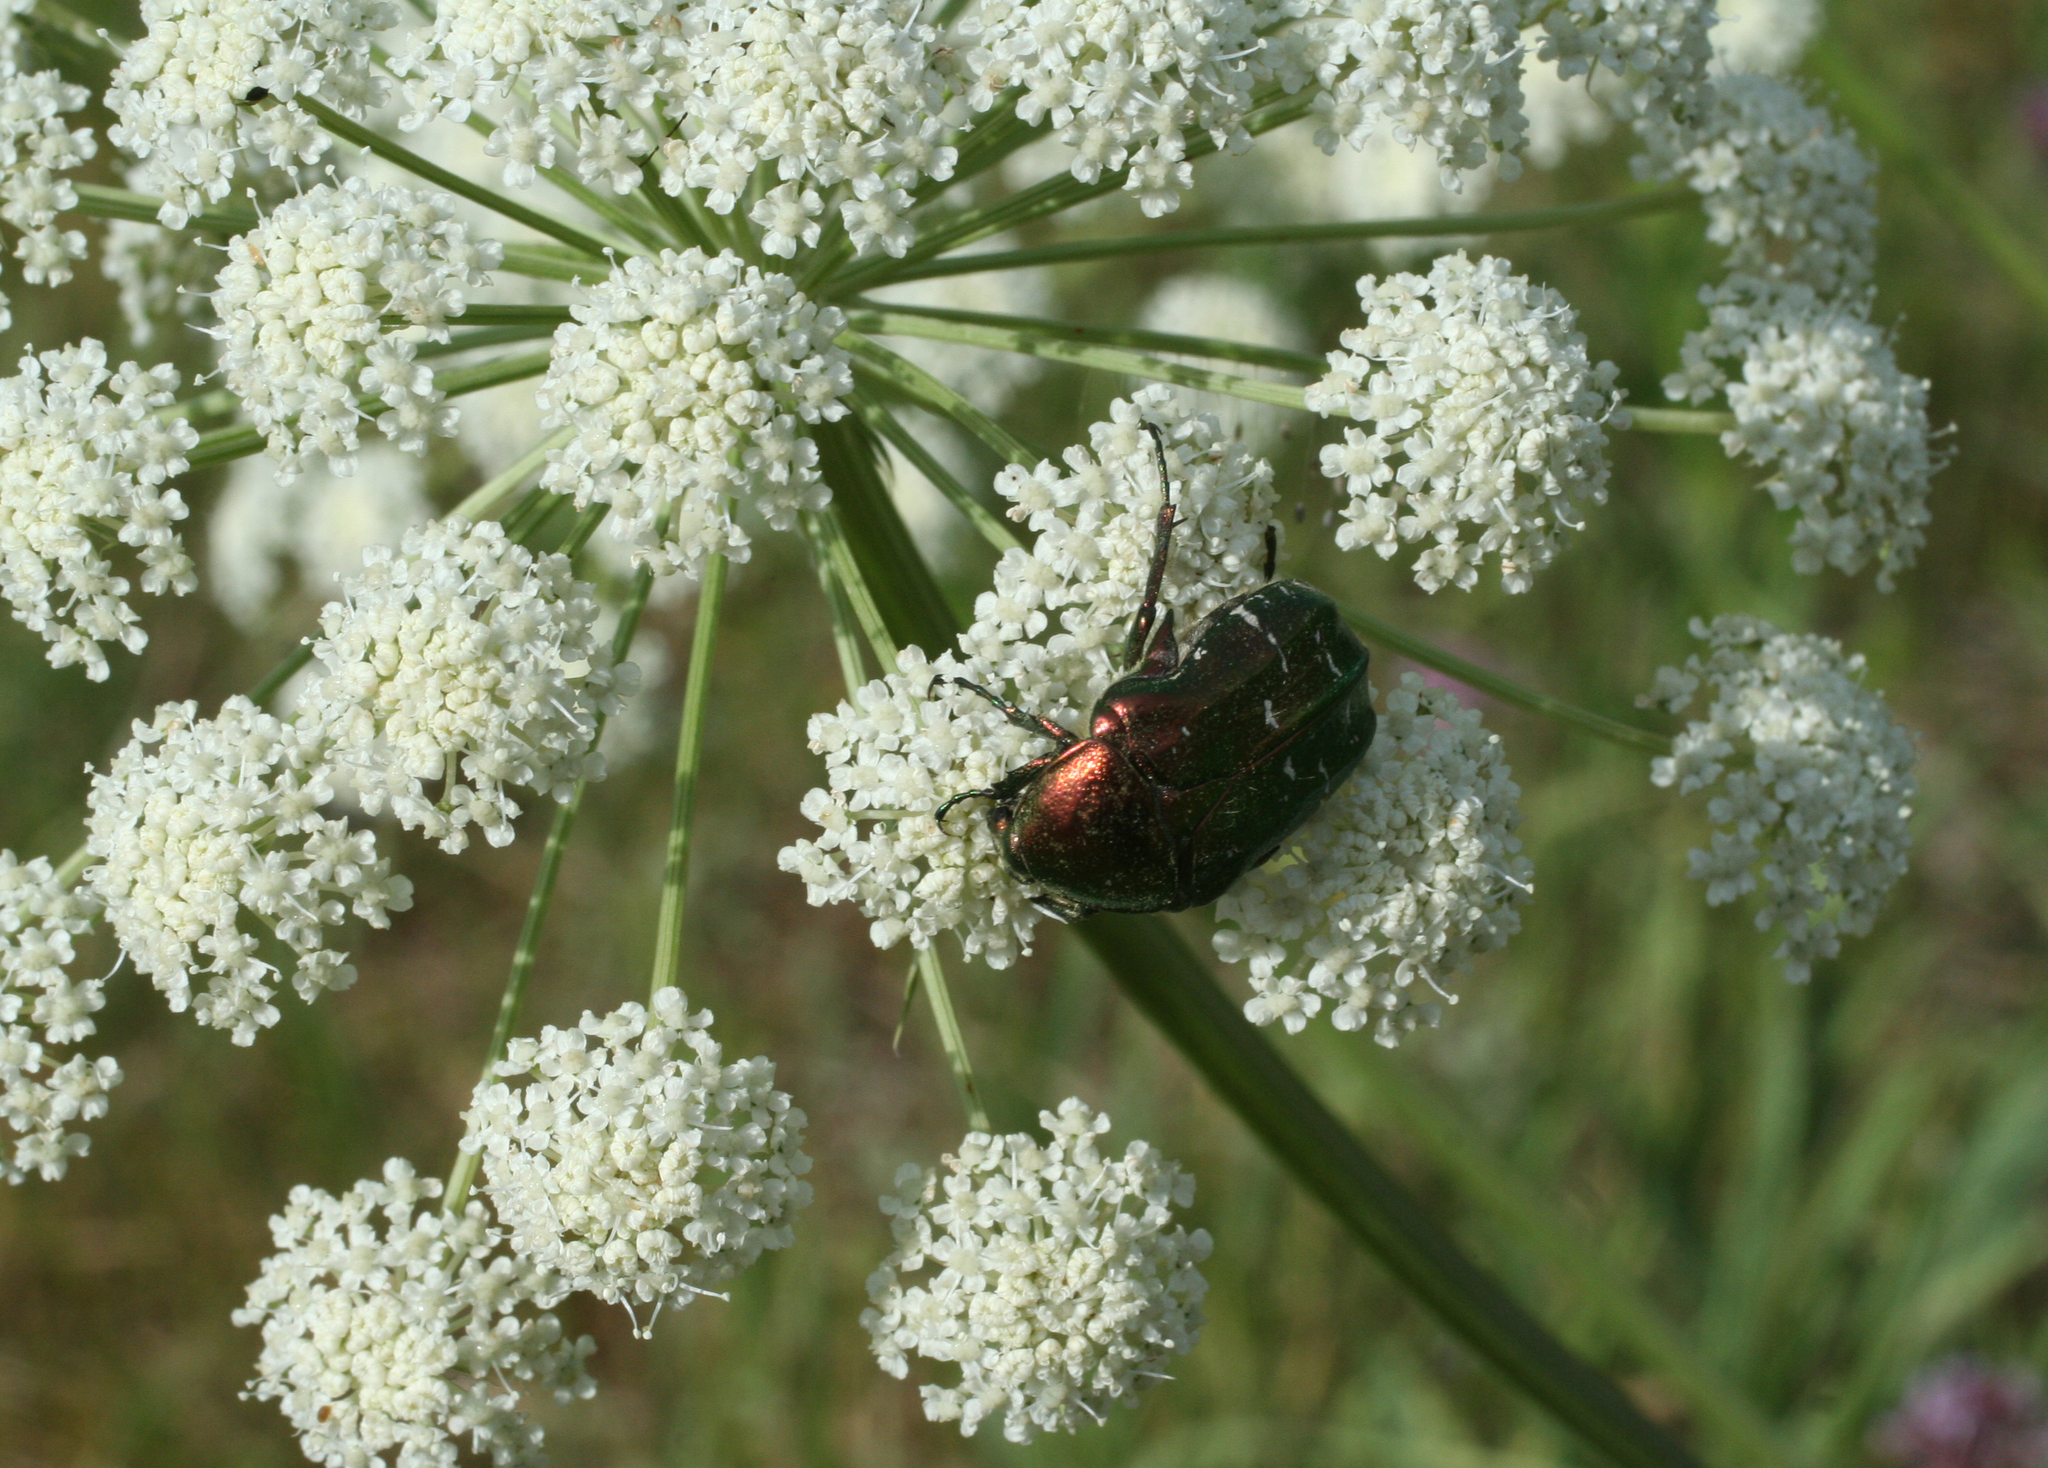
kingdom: Animalia
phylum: Arthropoda
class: Insecta
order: Coleoptera
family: Scarabaeidae
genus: Cetonia
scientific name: Cetonia aurata
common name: Rose chafer
